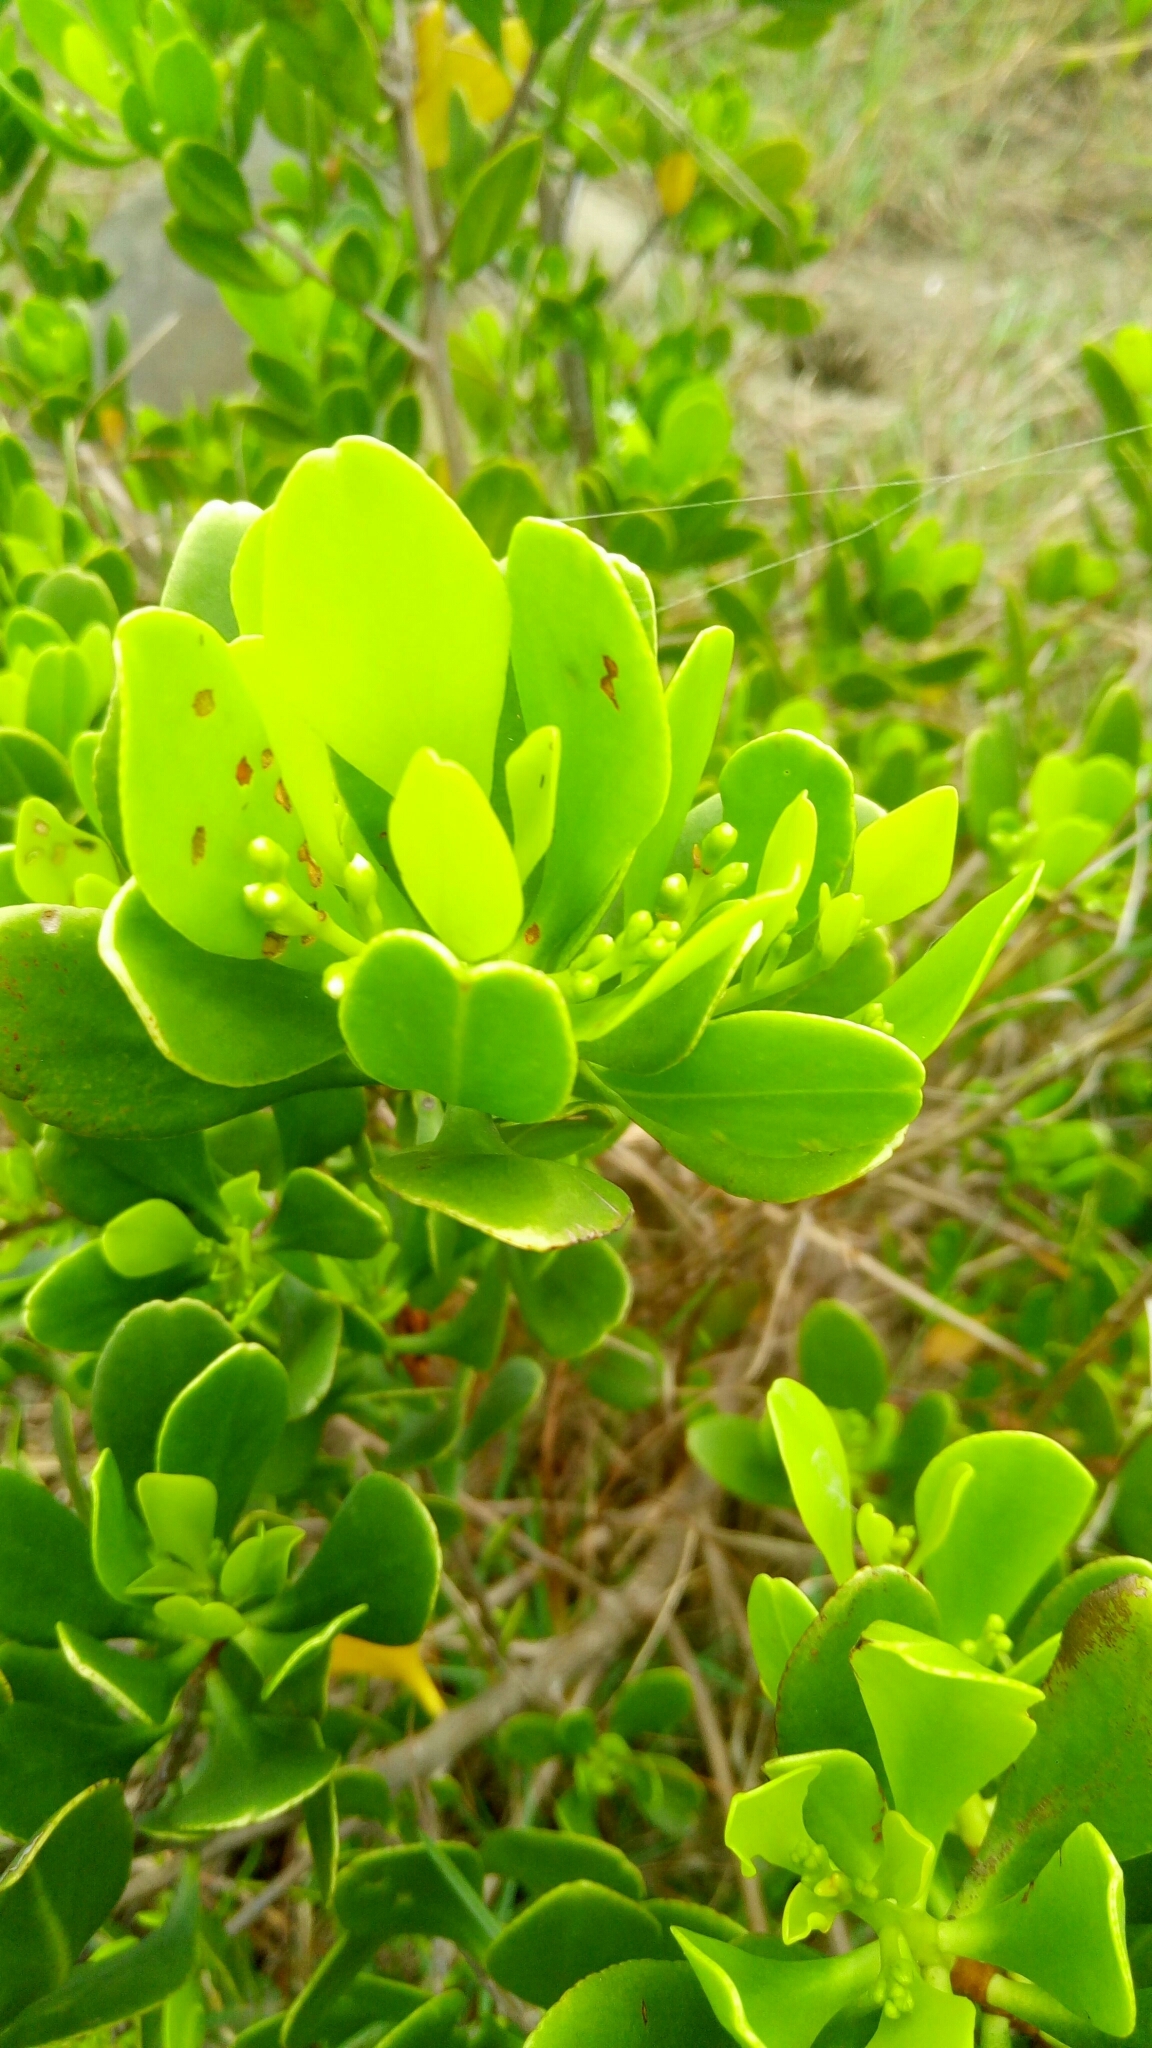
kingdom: Plantae
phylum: Tracheophyta
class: Magnoliopsida
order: Myrtales
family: Combretaceae
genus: Lumnitzera
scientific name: Lumnitzera racemosa
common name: White-flowered black mangrove
